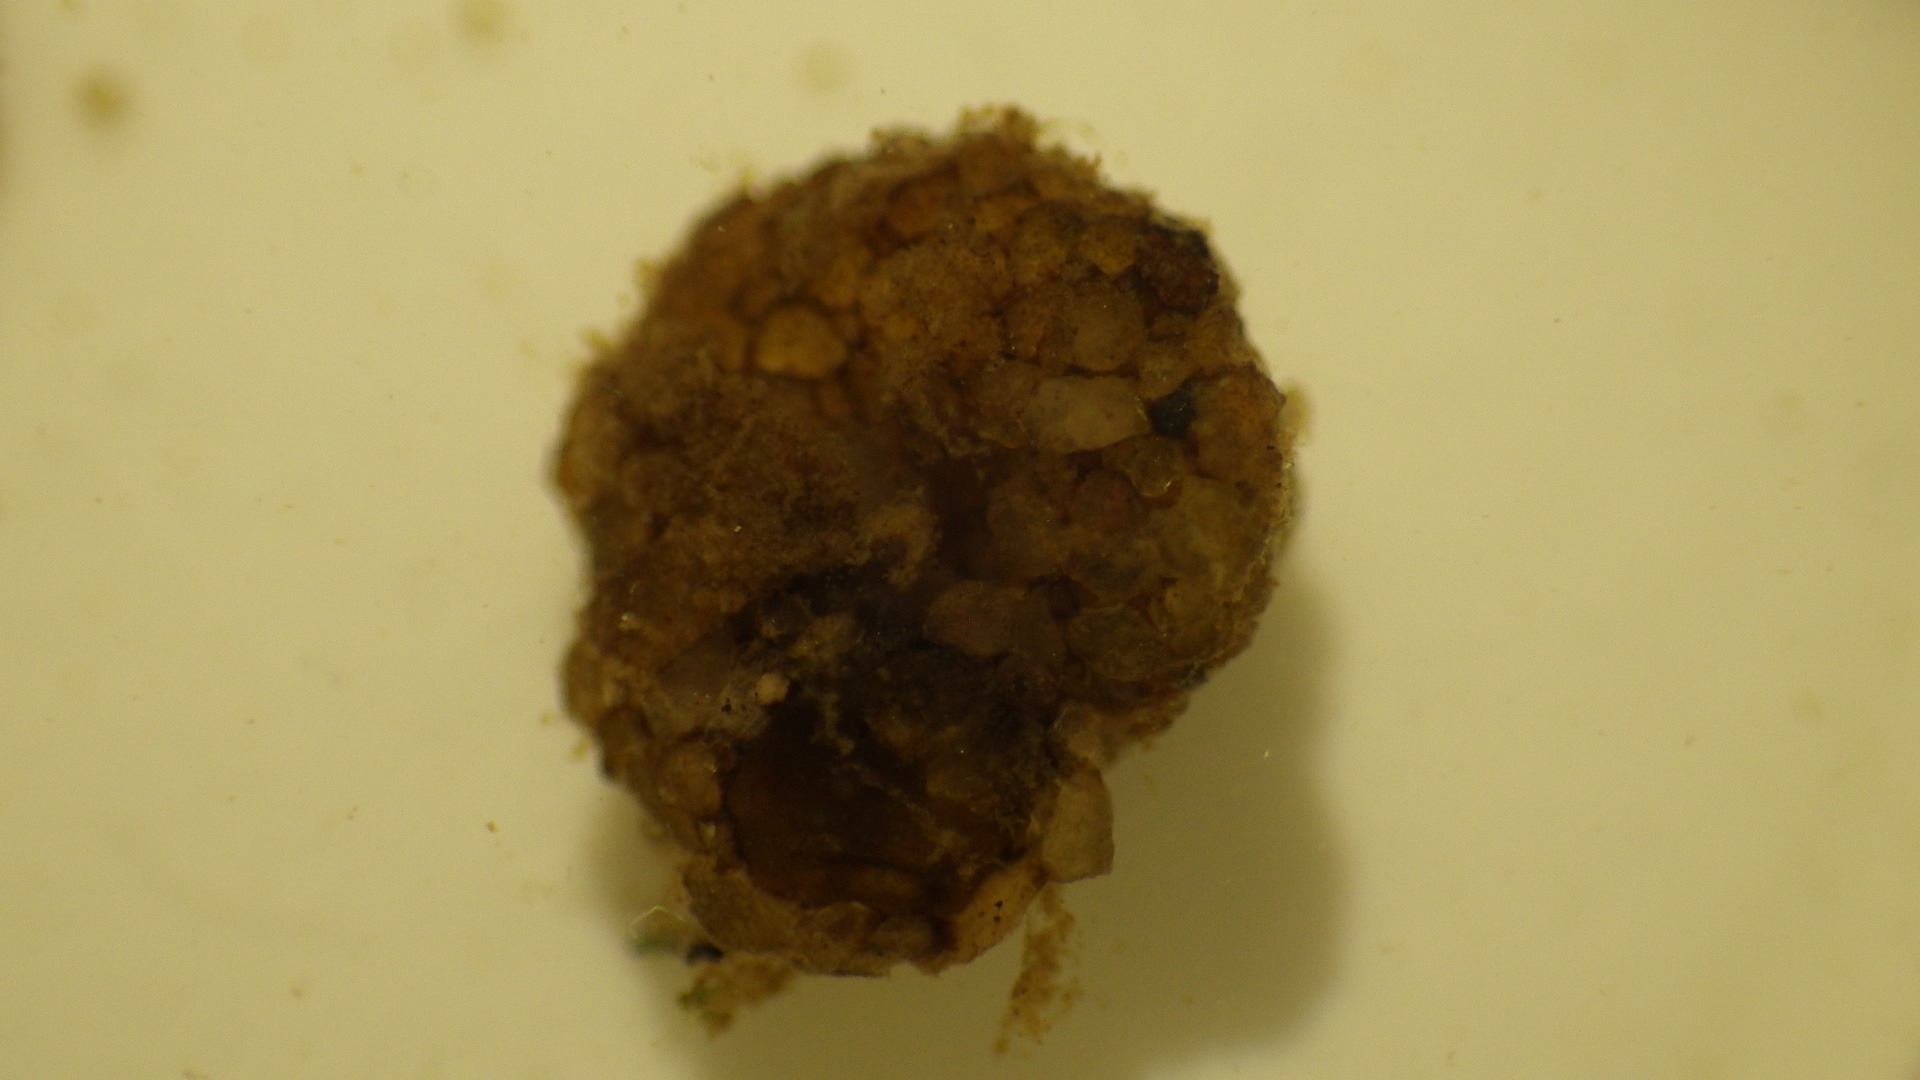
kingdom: Animalia
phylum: Arthropoda
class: Insecta
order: Trichoptera
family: Helicopsychidae
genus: Helicopsyche
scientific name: Helicopsyche borealis
